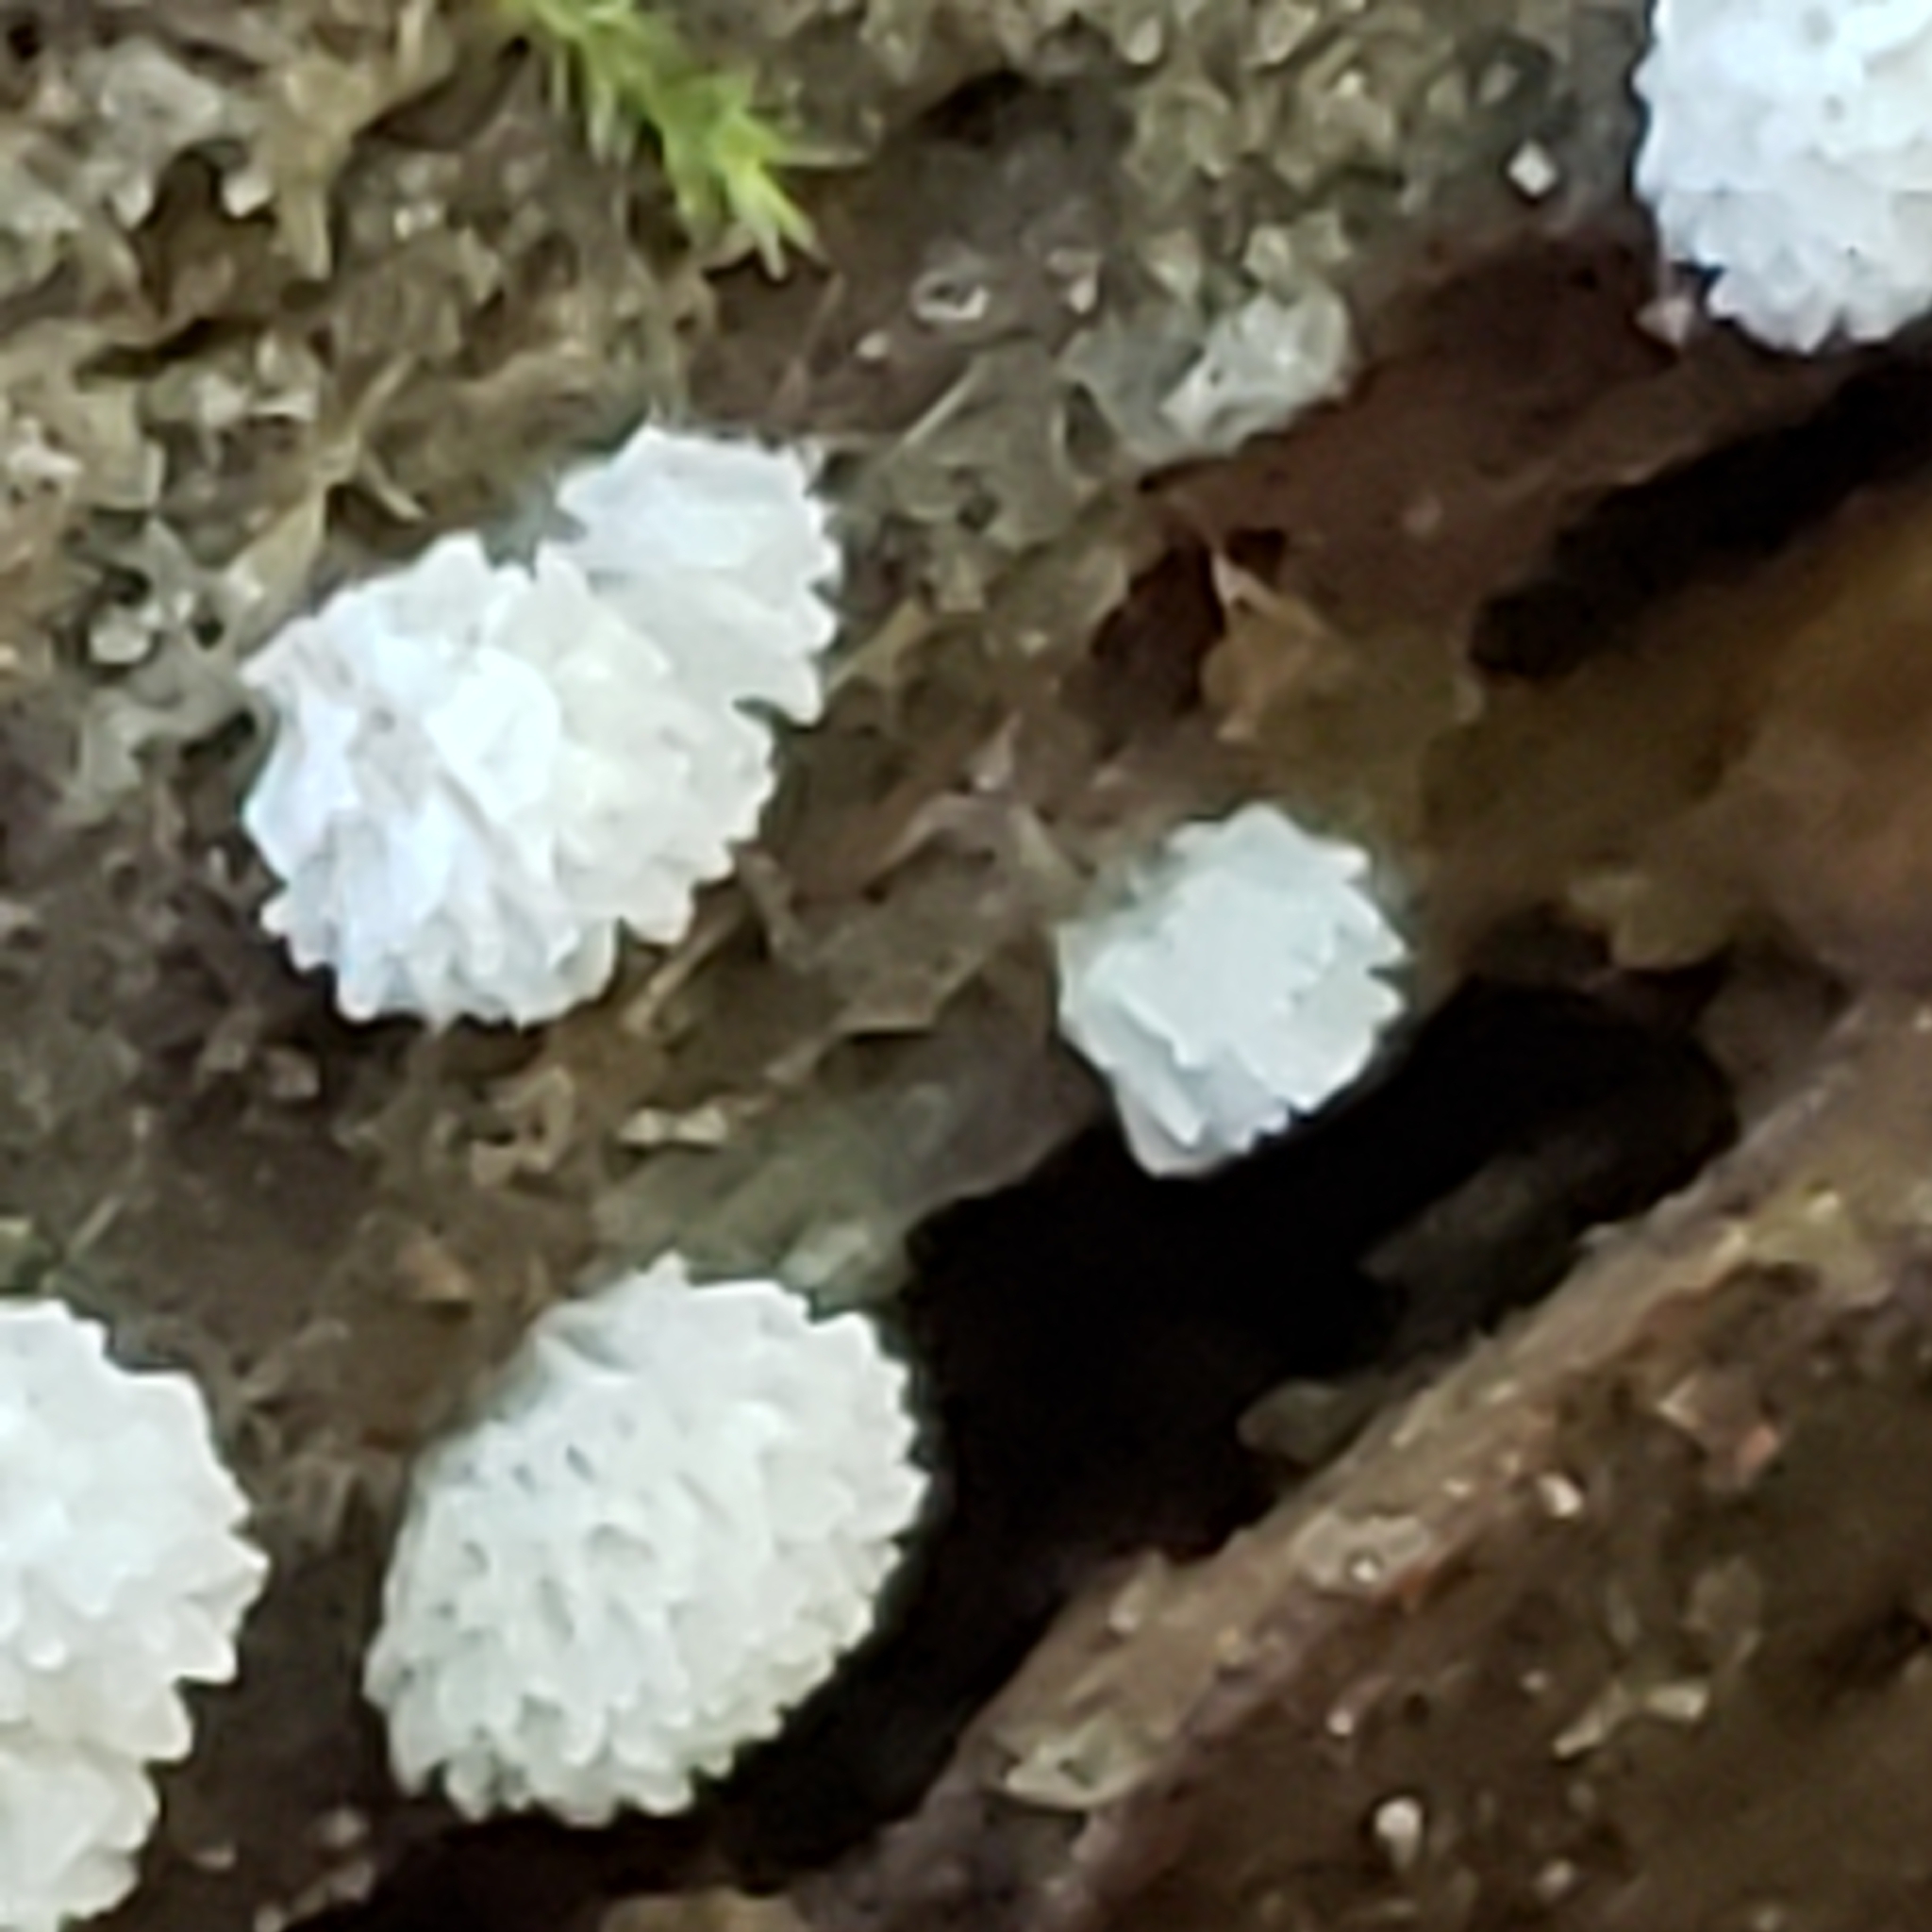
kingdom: Protozoa
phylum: Mycetozoa
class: Protosteliomycetes
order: Ceratiomyxales
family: Ceratiomyxaceae
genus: Ceratiomyxa
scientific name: Ceratiomyxa fruticulosa
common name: Honeycomb coral slime mold
